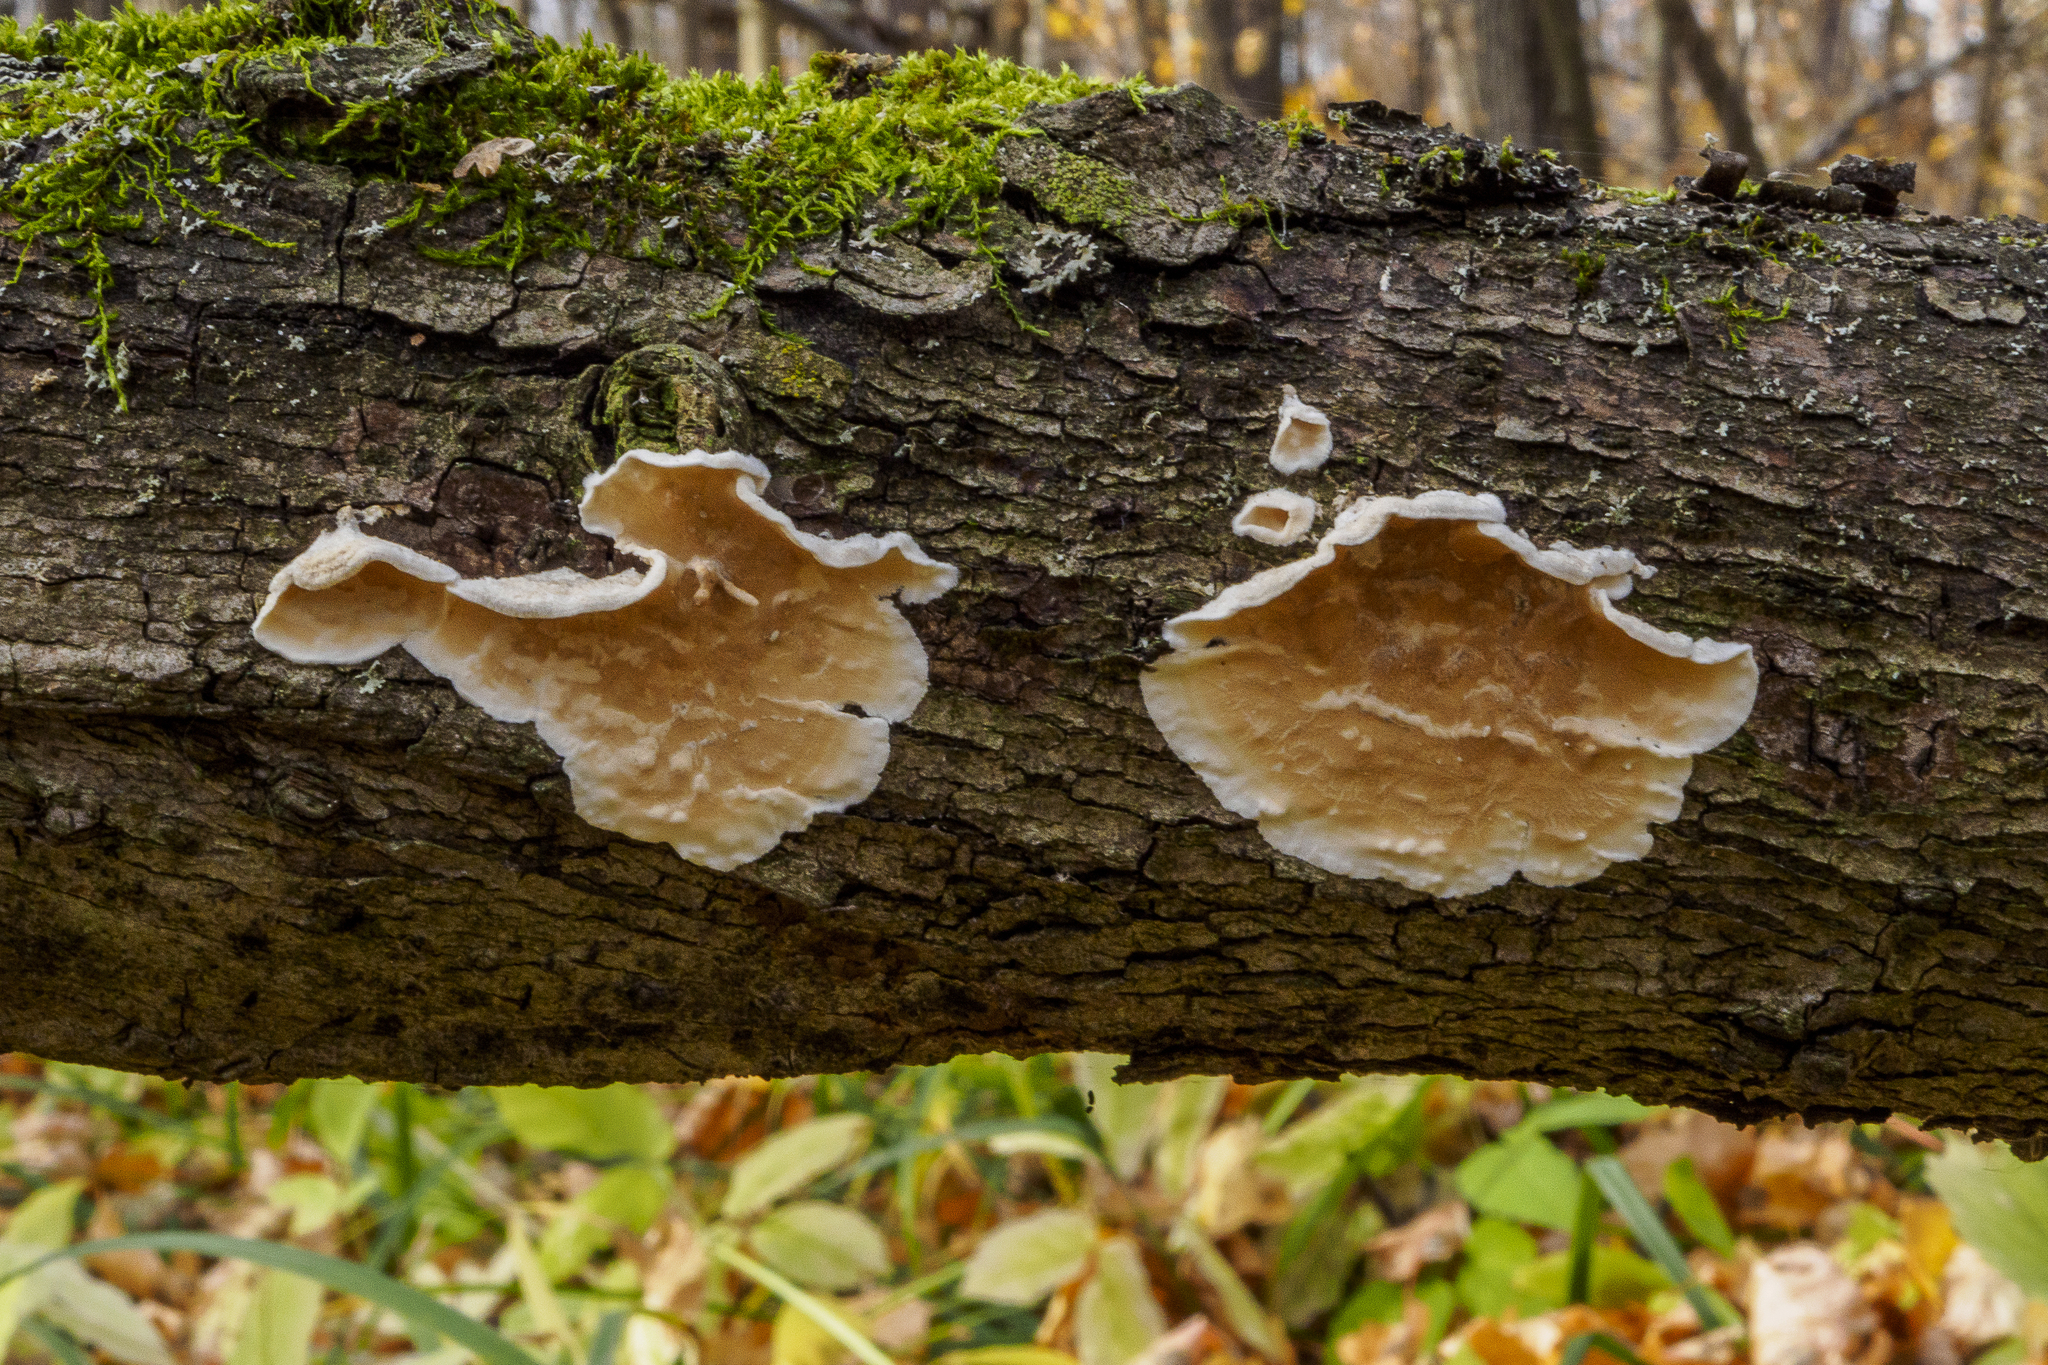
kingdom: Fungi
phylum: Basidiomycota
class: Agaricomycetes
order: Polyporales
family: Irpicaceae
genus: Byssomerulius
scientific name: Byssomerulius corium
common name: Netted crust
